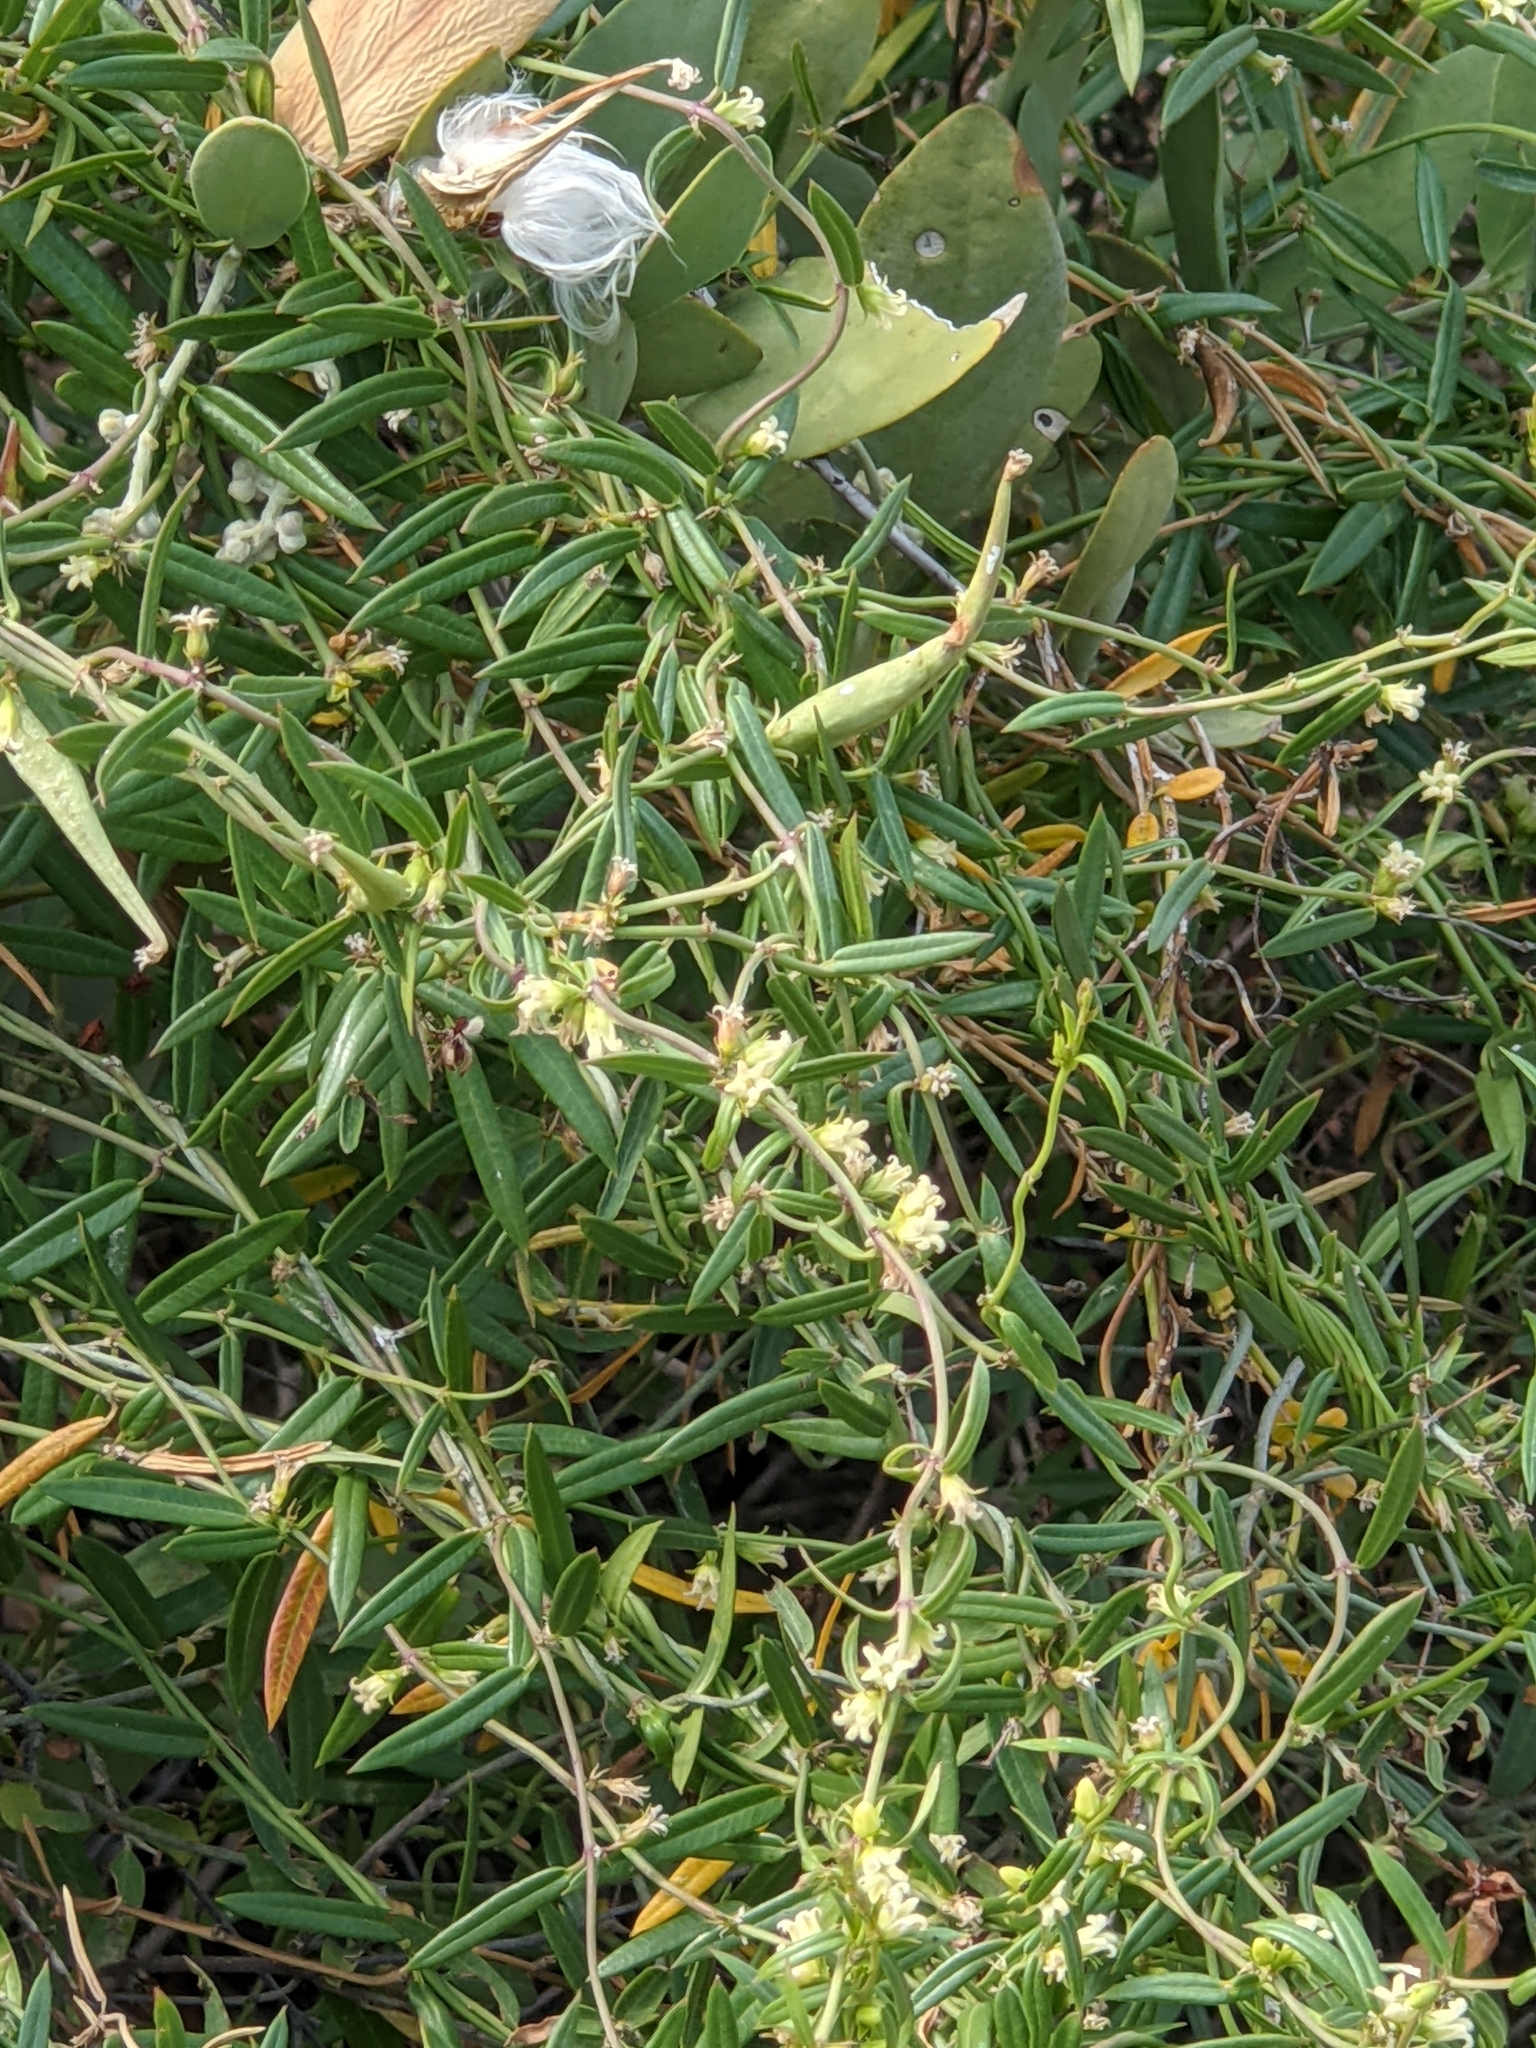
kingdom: Plantae
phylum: Tracheophyta
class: Magnoliopsida
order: Gentianales
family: Apocynaceae
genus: Metastelma
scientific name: Metastelma arizonicum
